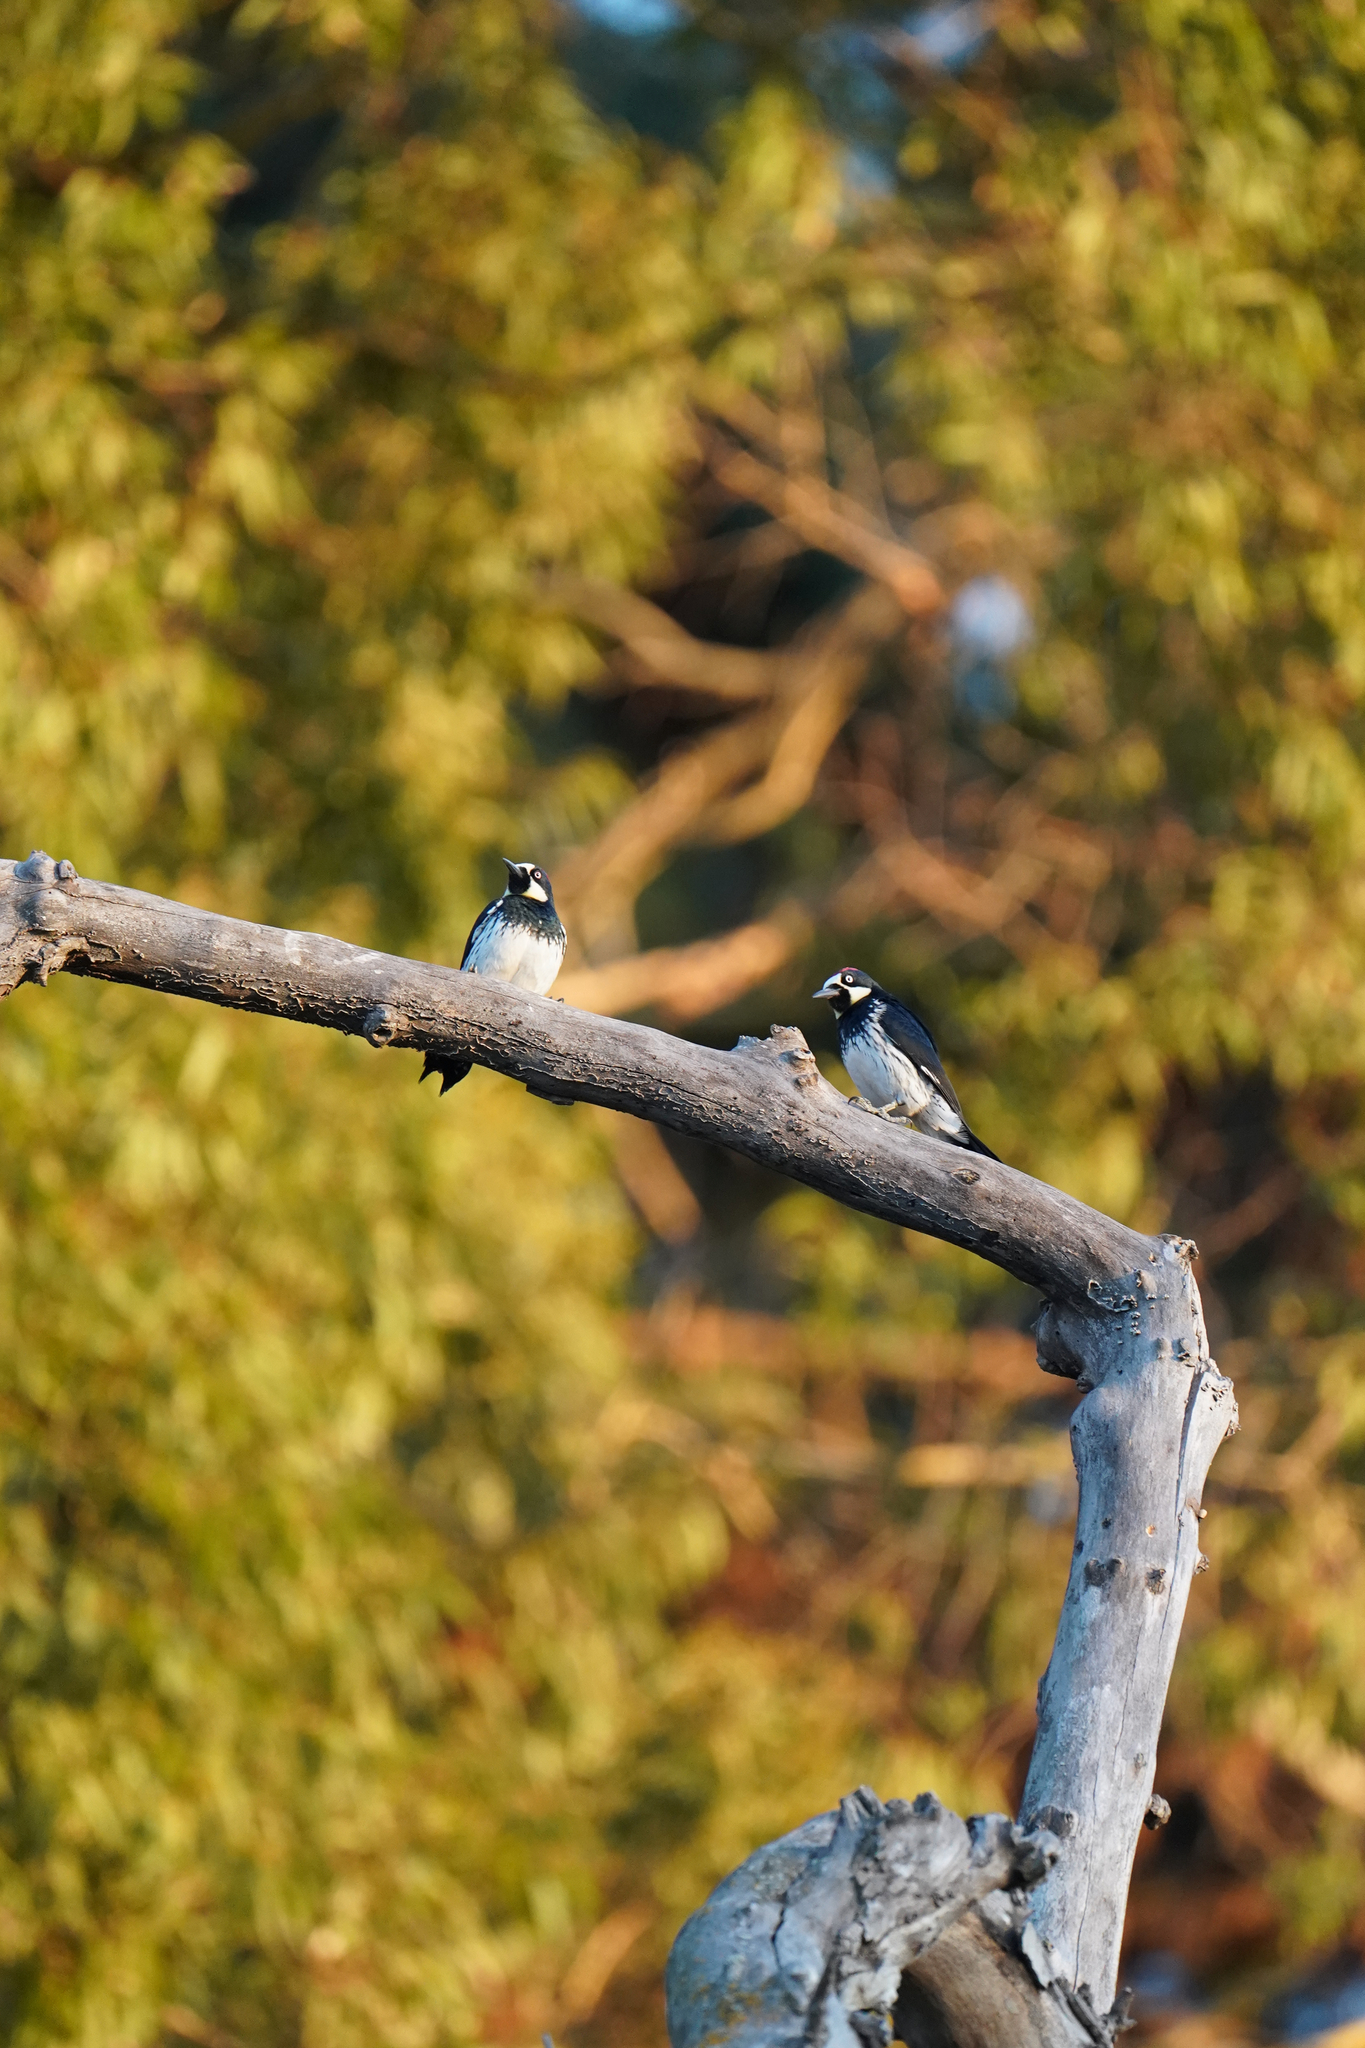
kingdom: Animalia
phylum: Chordata
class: Aves
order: Piciformes
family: Picidae
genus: Melanerpes
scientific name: Melanerpes formicivorus
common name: Acorn woodpecker
